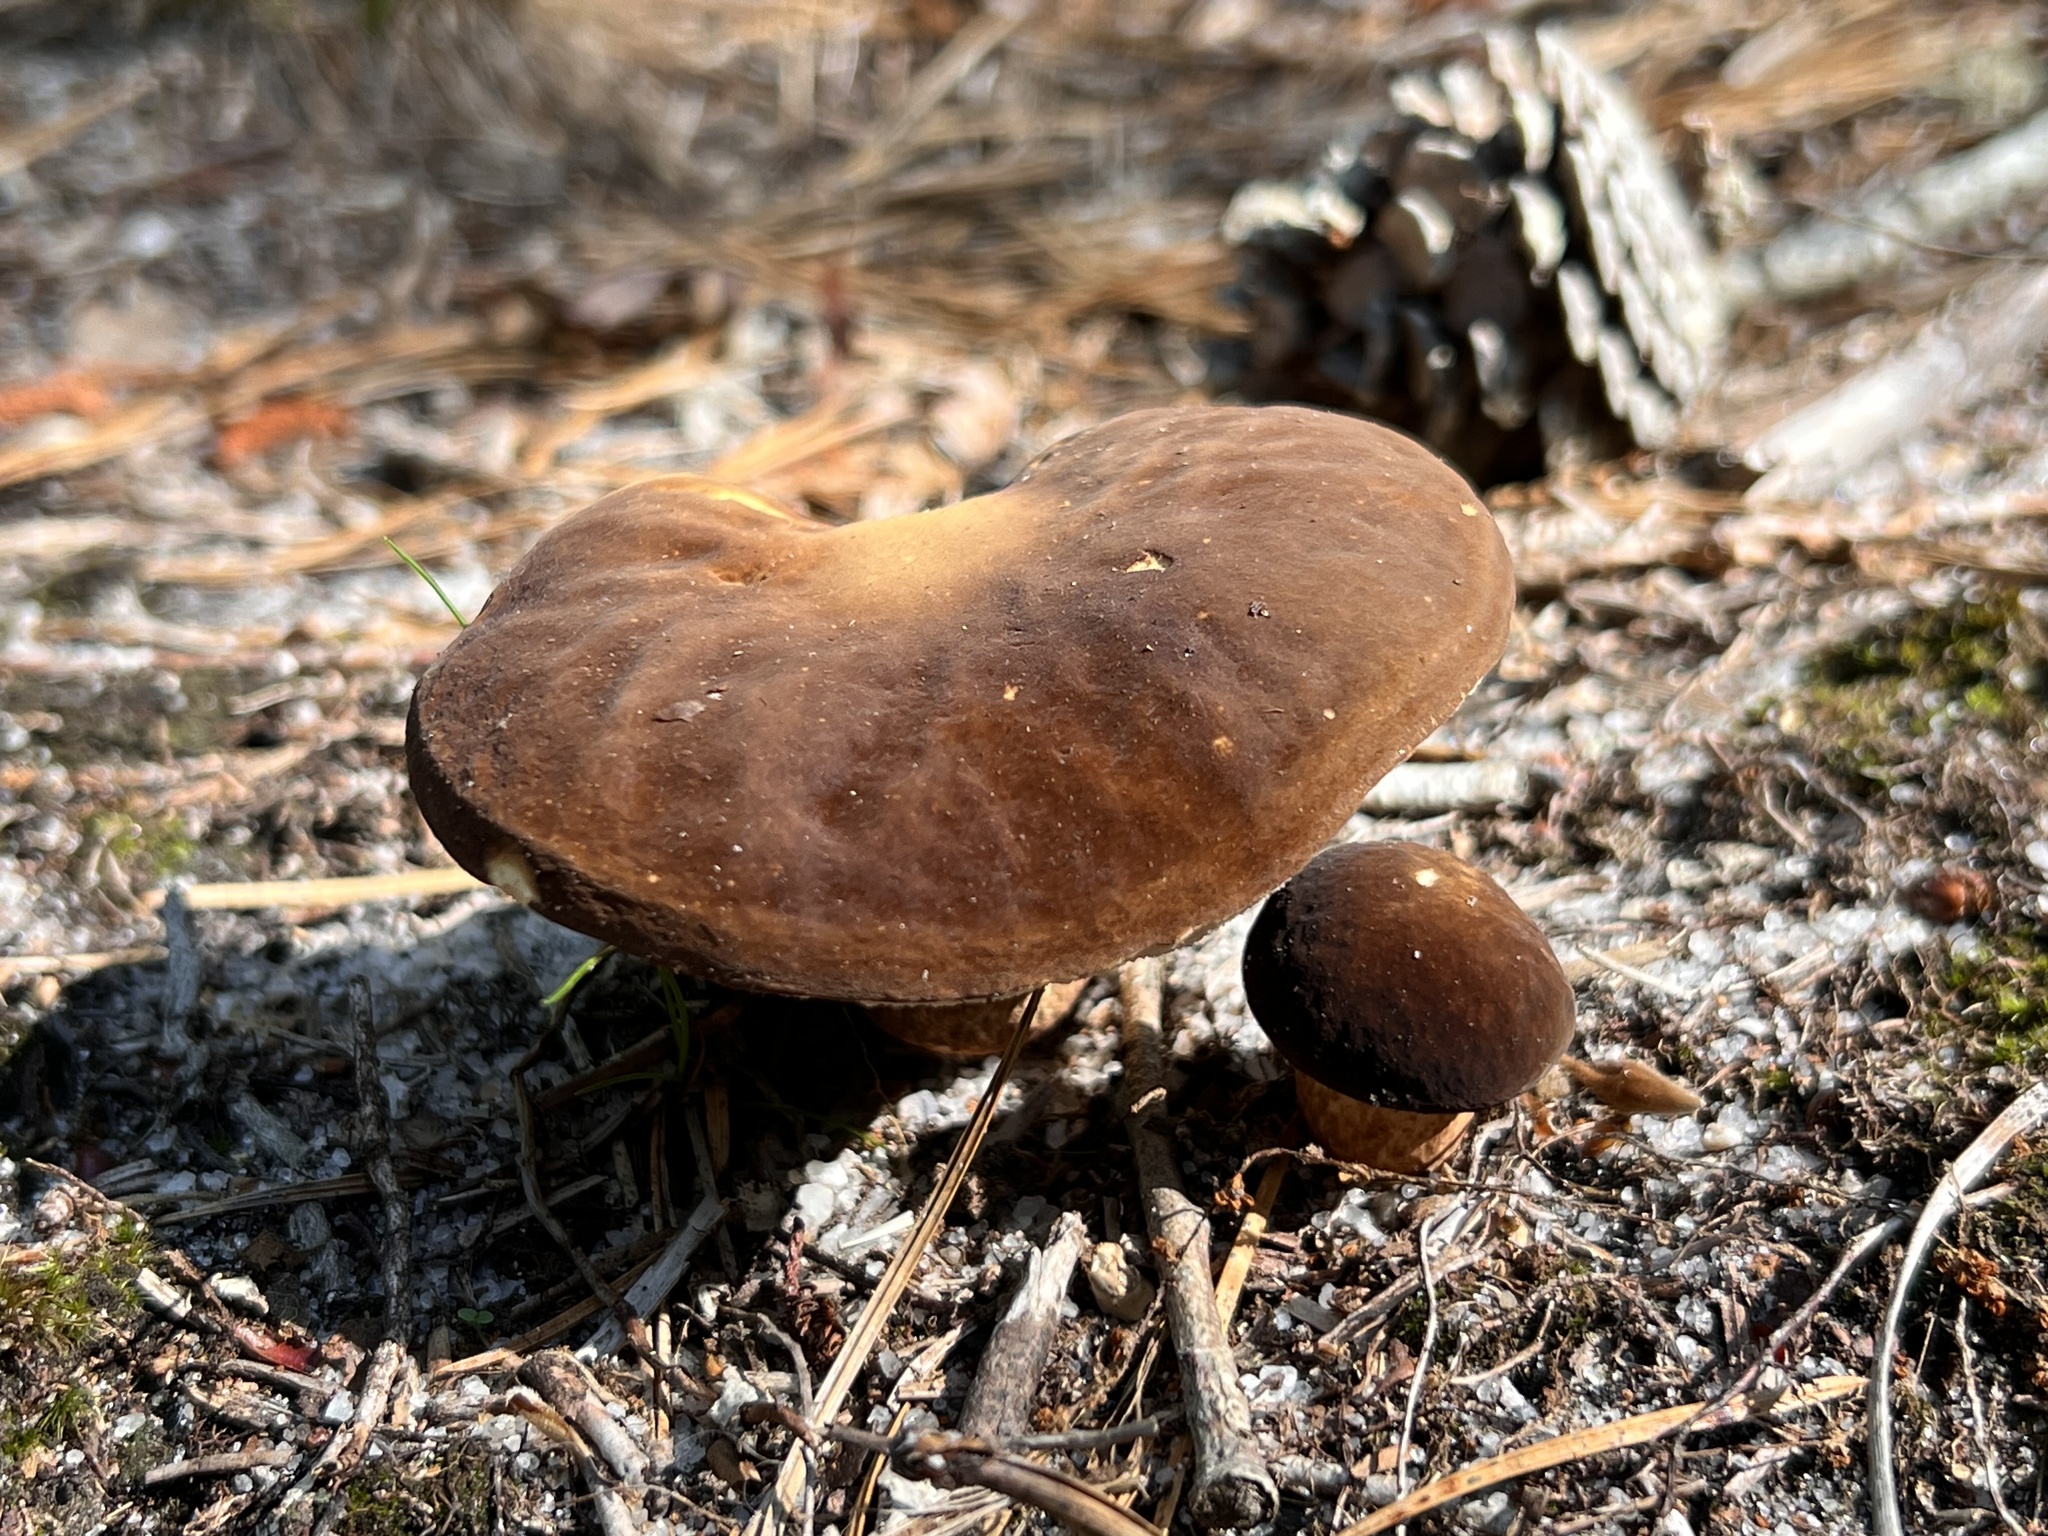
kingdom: Fungi
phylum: Basidiomycota
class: Agaricomycetes
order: Boletales
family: Boletaceae
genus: Xanthoconium
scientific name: Xanthoconium affine
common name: Spotted bolete
